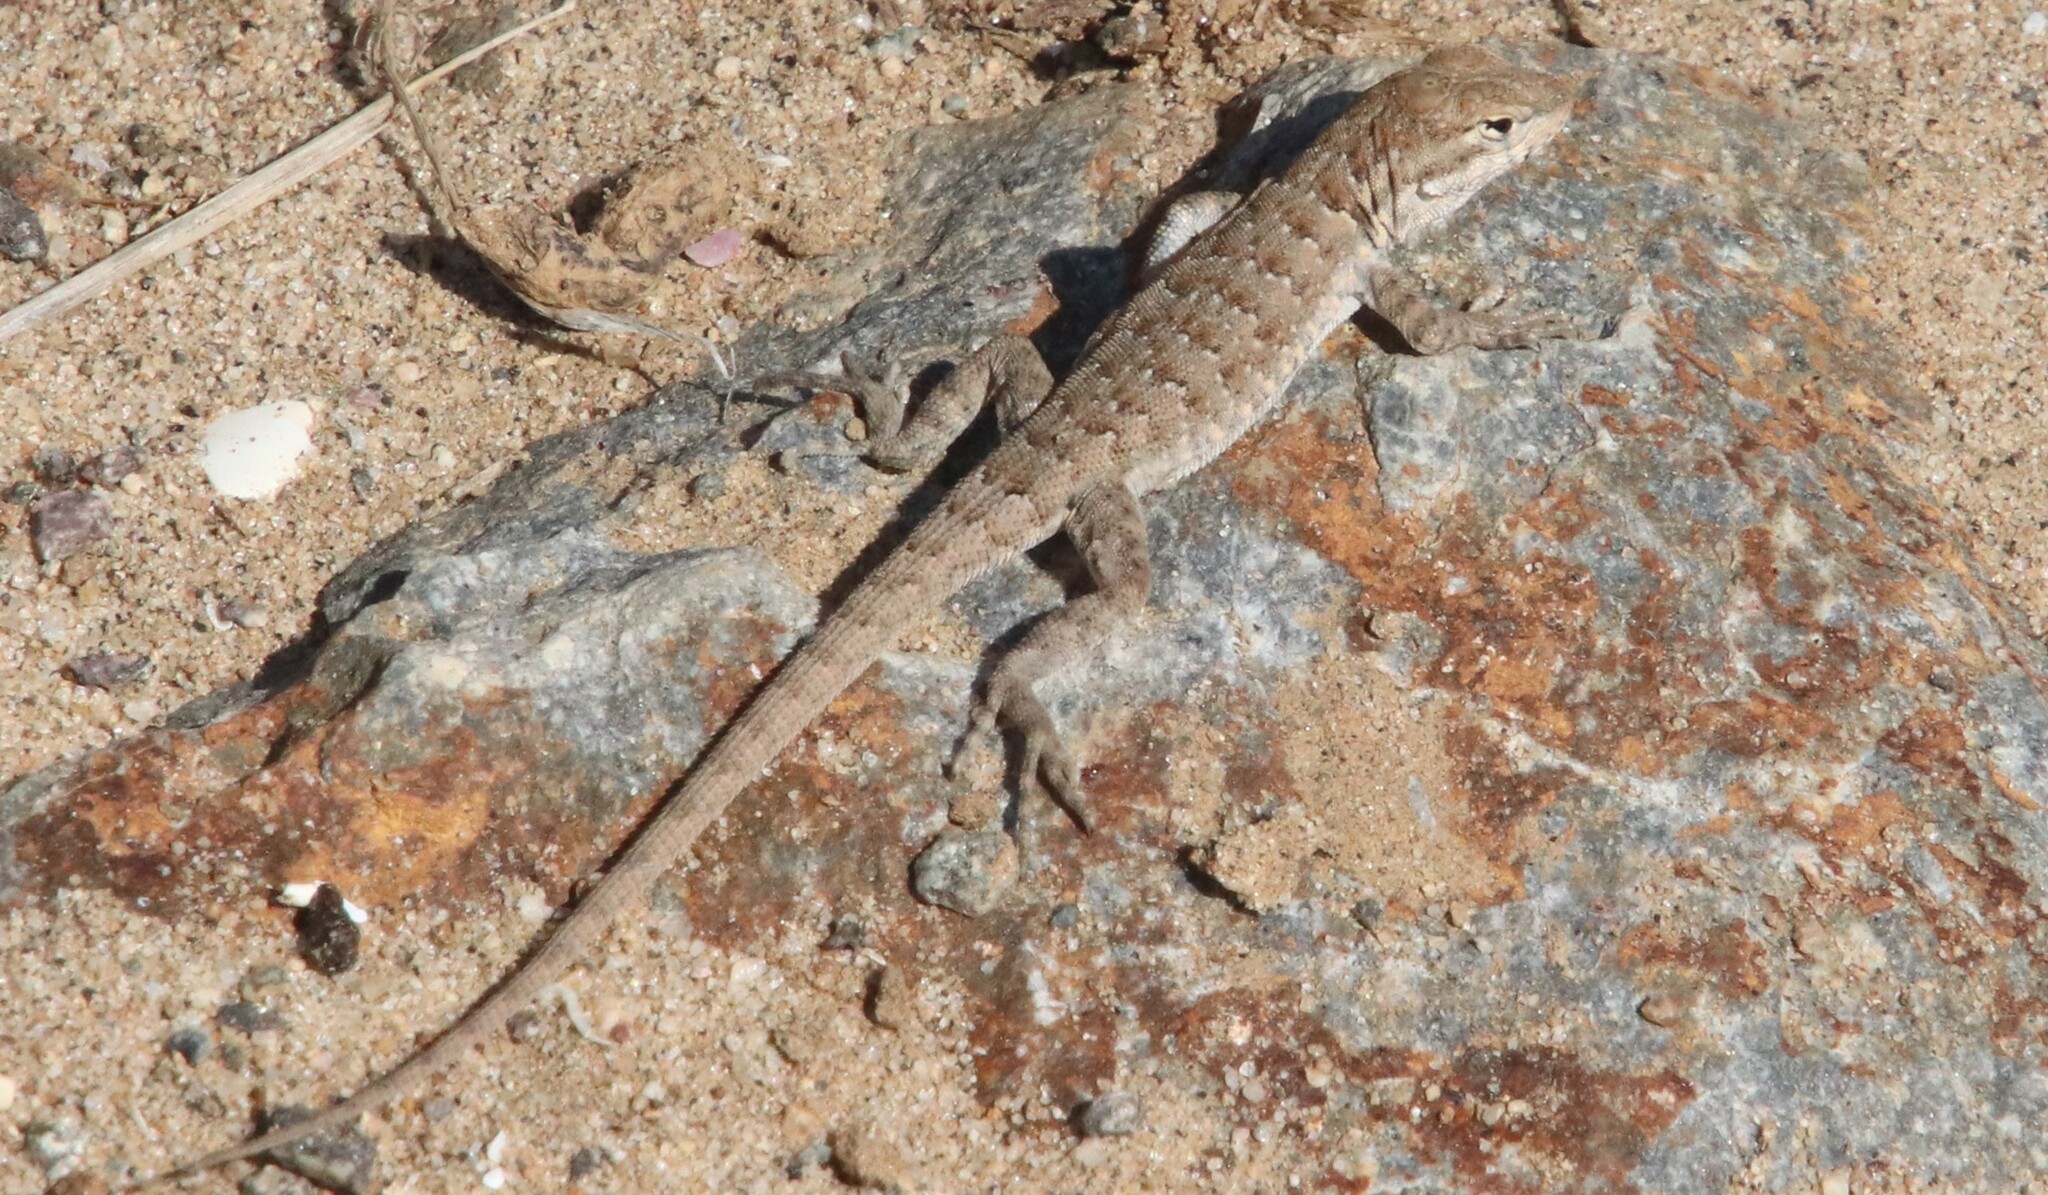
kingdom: Animalia
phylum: Chordata
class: Squamata
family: Phrynosomatidae
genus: Uta
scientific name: Uta stansburiana
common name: Side-blotched lizard
